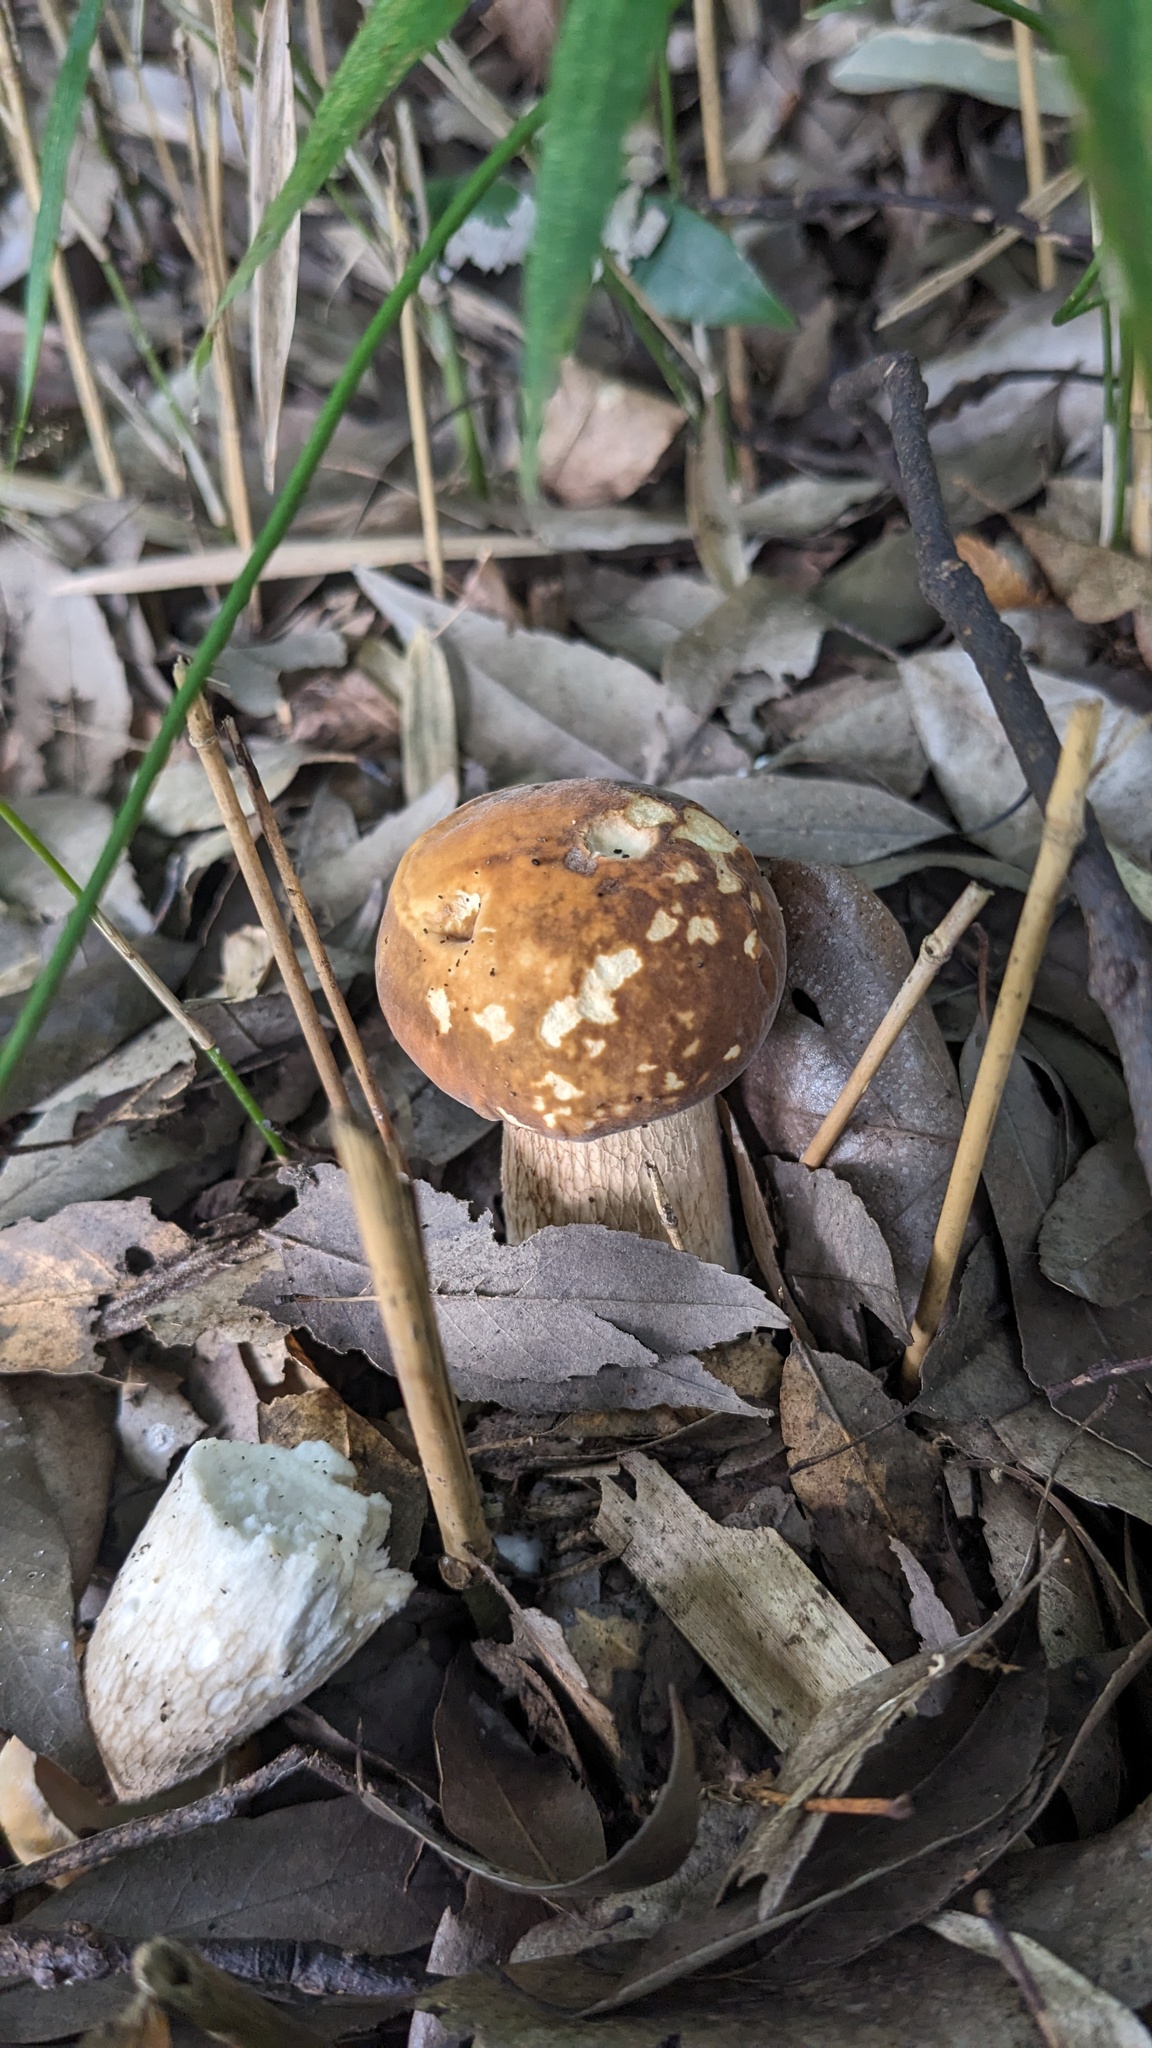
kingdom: Fungi
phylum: Basidiomycota
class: Agaricomycetes
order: Boletales
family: Boletaceae
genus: Boletus
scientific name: Boletus reticulatus
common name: Summer bolete
